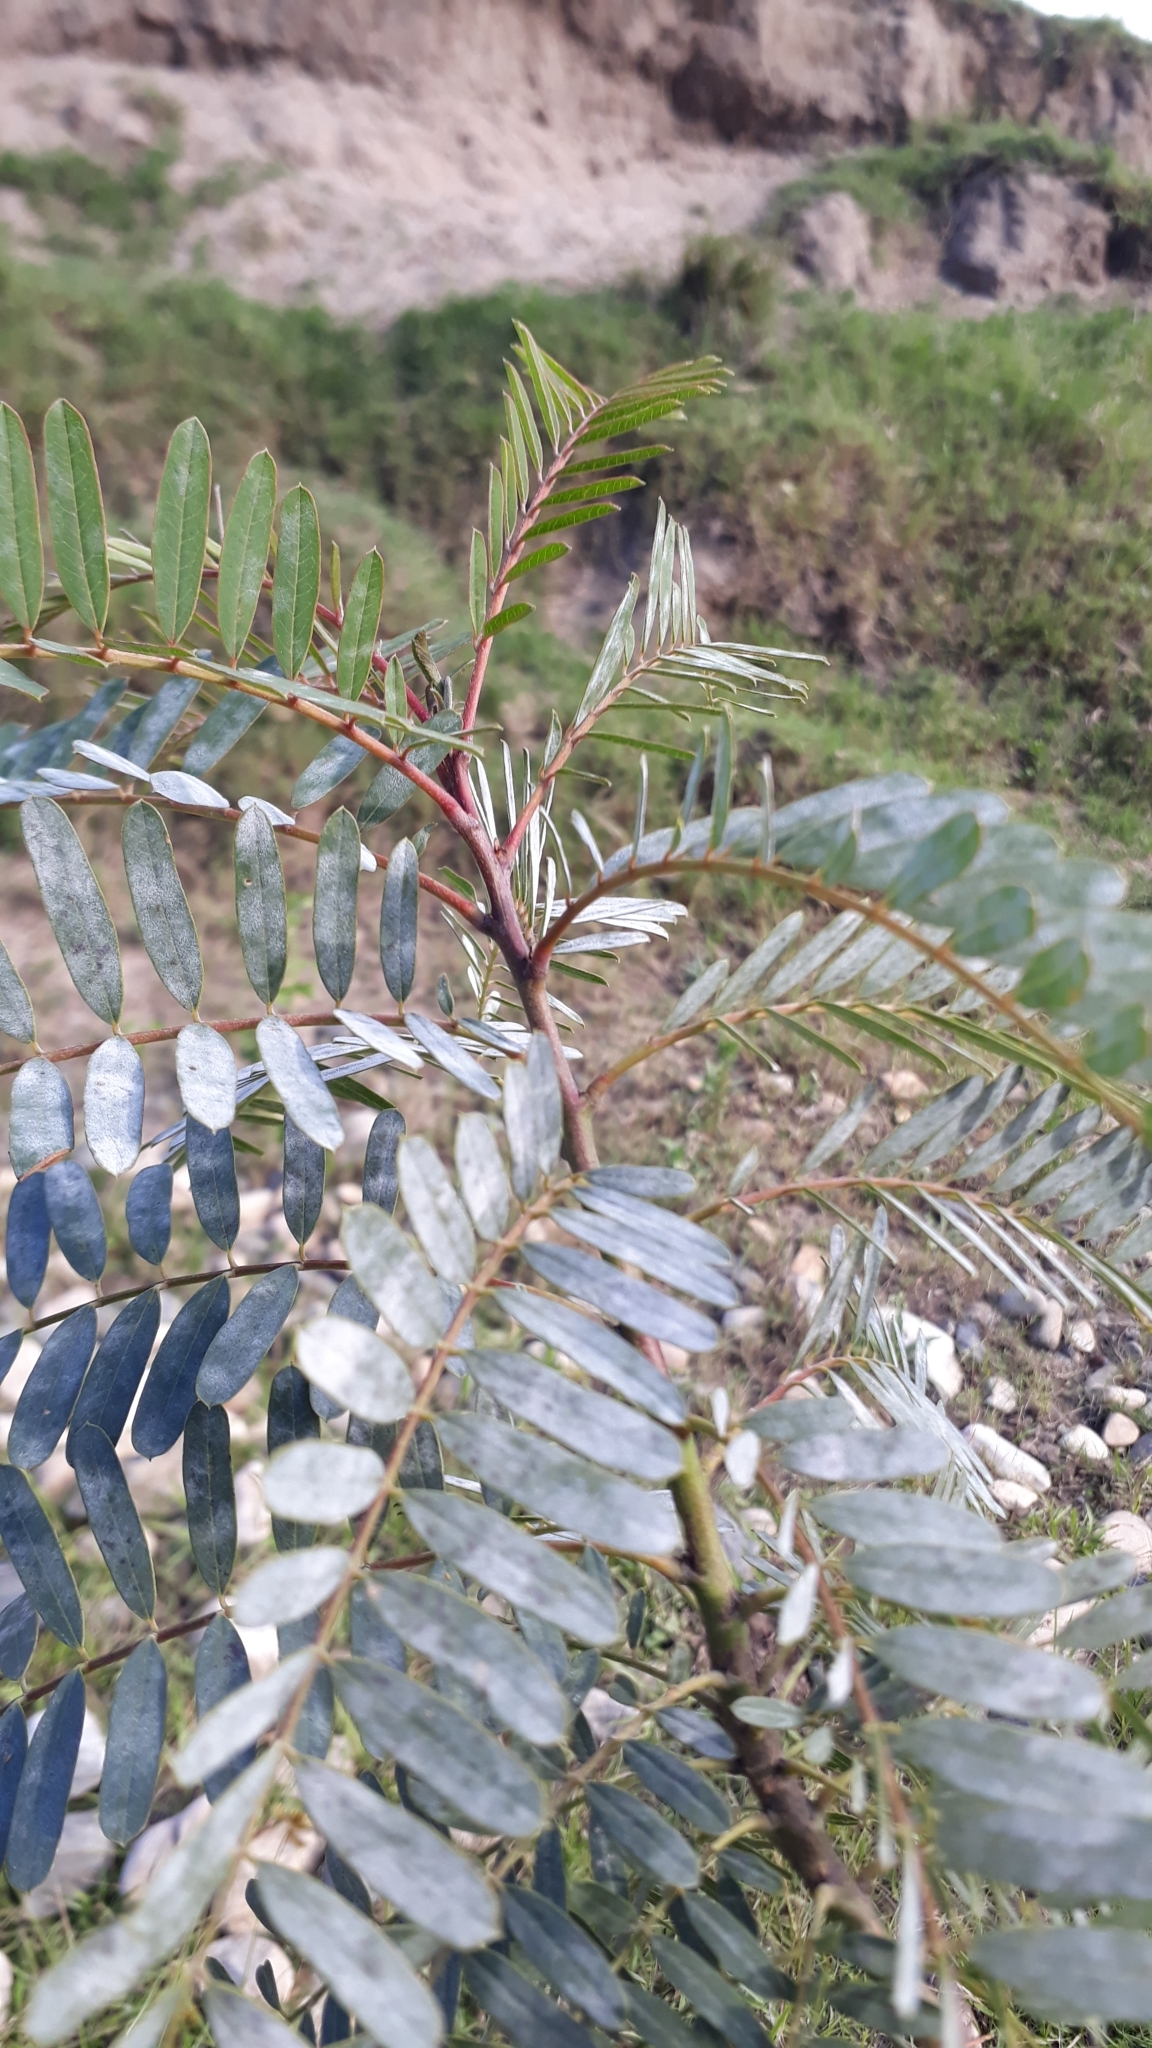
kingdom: Plantae
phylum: Tracheophyta
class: Magnoliopsida
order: Fabales
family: Fabaceae
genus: Sesbania
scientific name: Sesbania punicea
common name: Rattlebox
